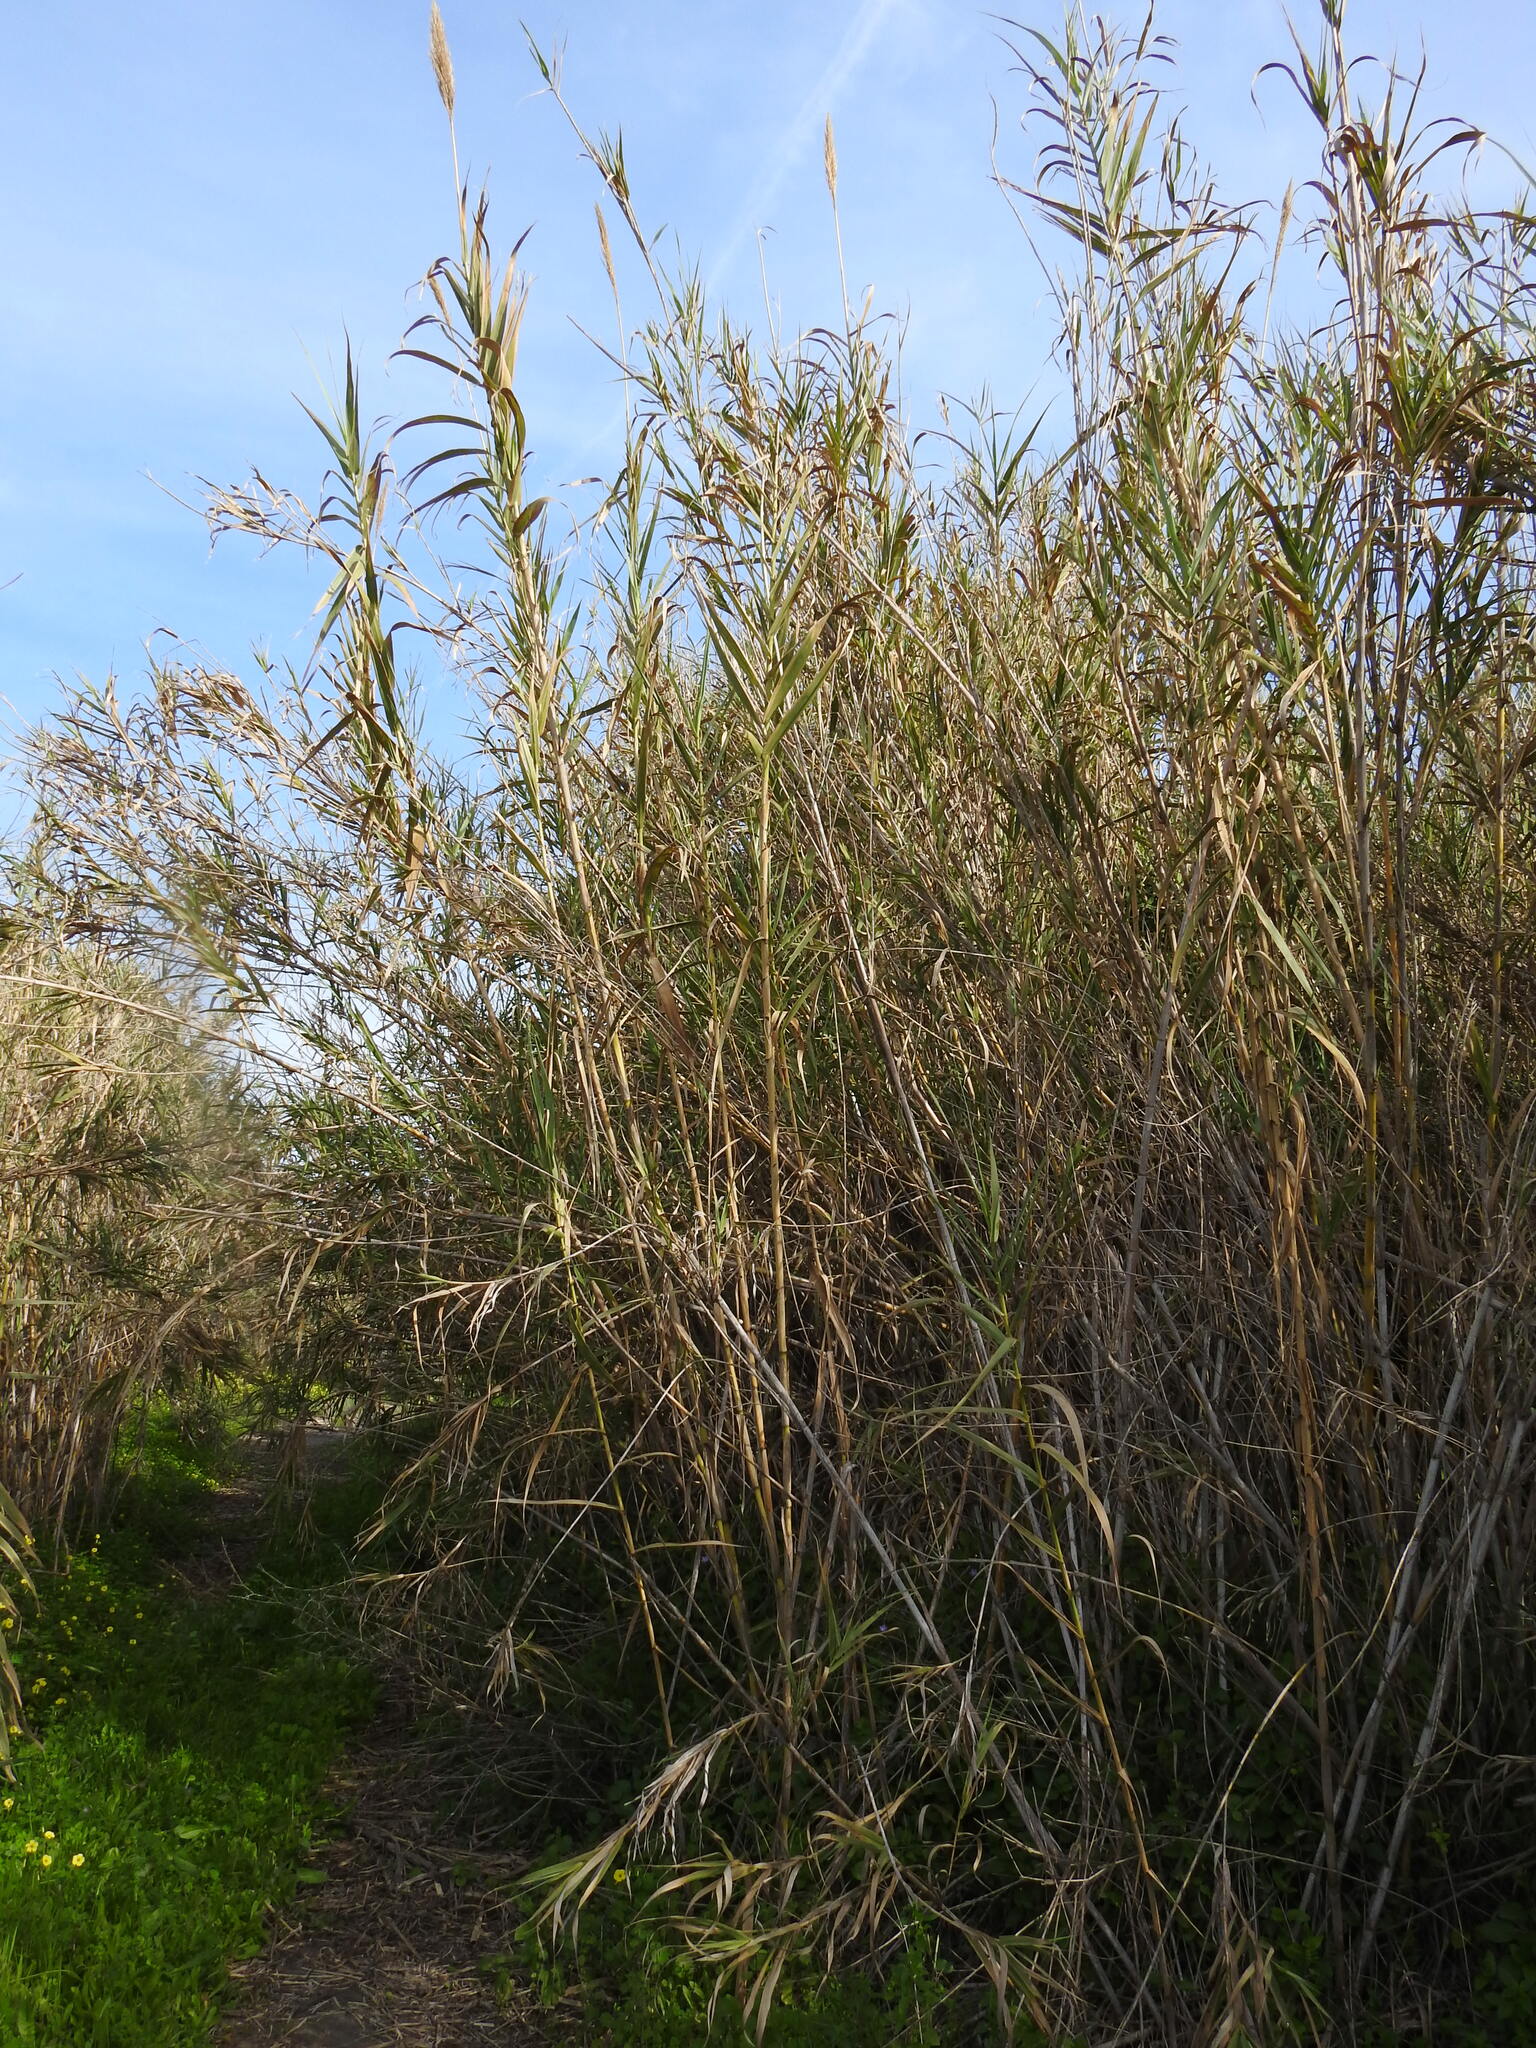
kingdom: Plantae
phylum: Tracheophyta
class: Liliopsida
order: Poales
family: Poaceae
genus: Arundo
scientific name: Arundo donax
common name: Giant reed
